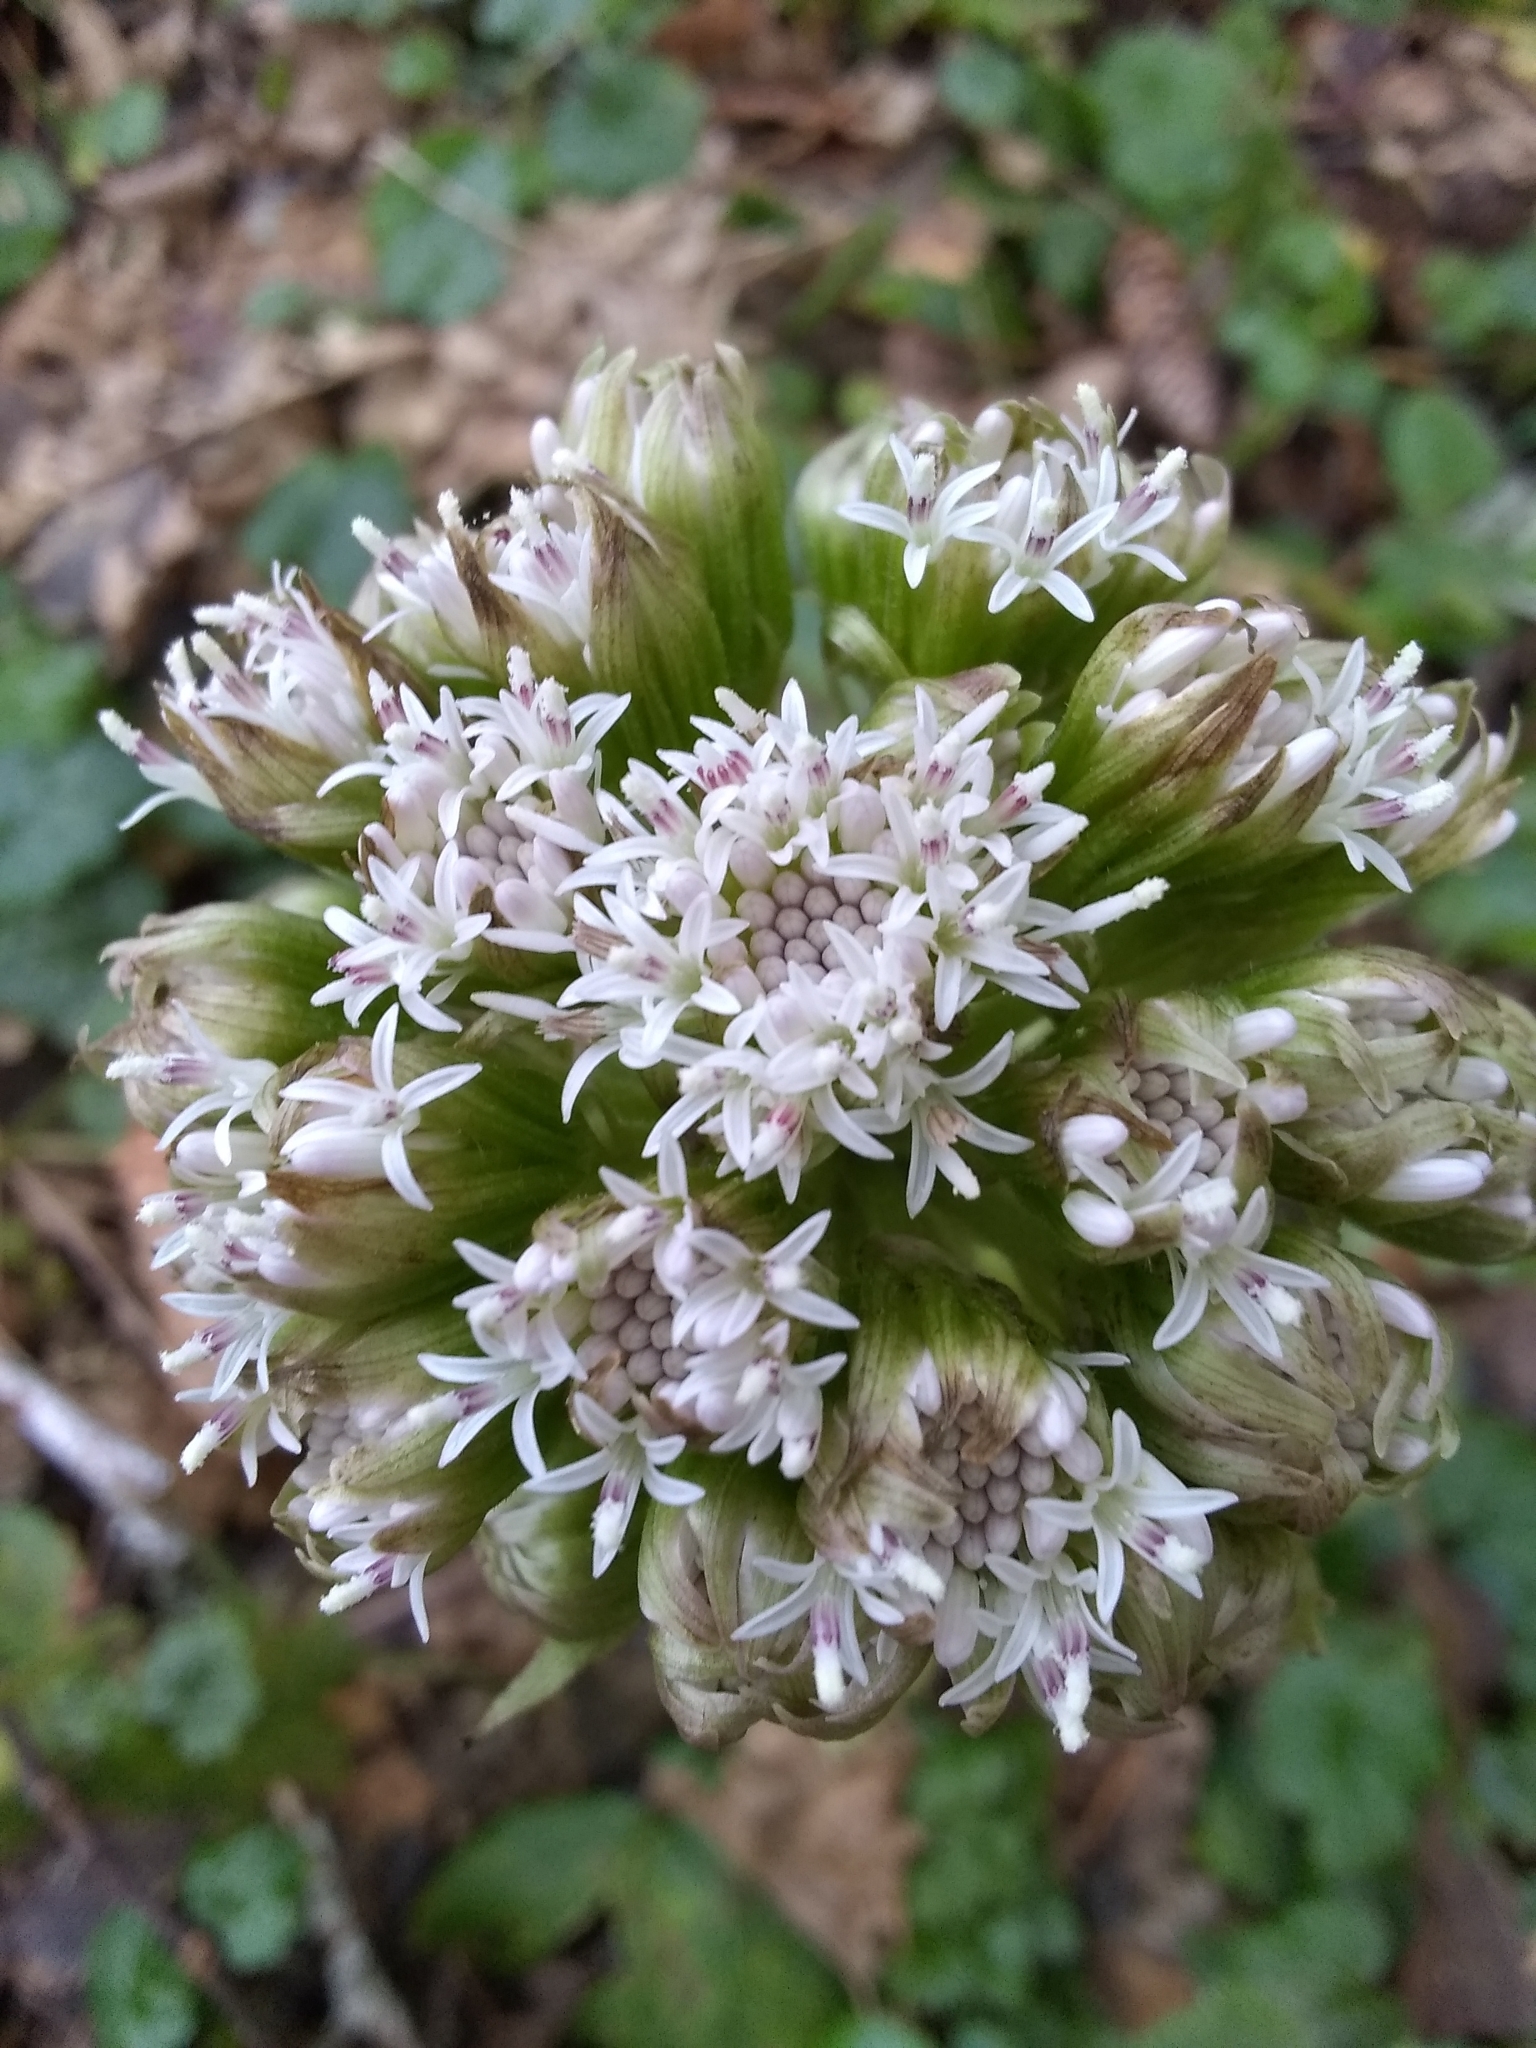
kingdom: Plantae
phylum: Tracheophyta
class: Magnoliopsida
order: Asterales
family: Asteraceae
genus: Petasites
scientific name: Petasites frigidus
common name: Arctic butterbur
